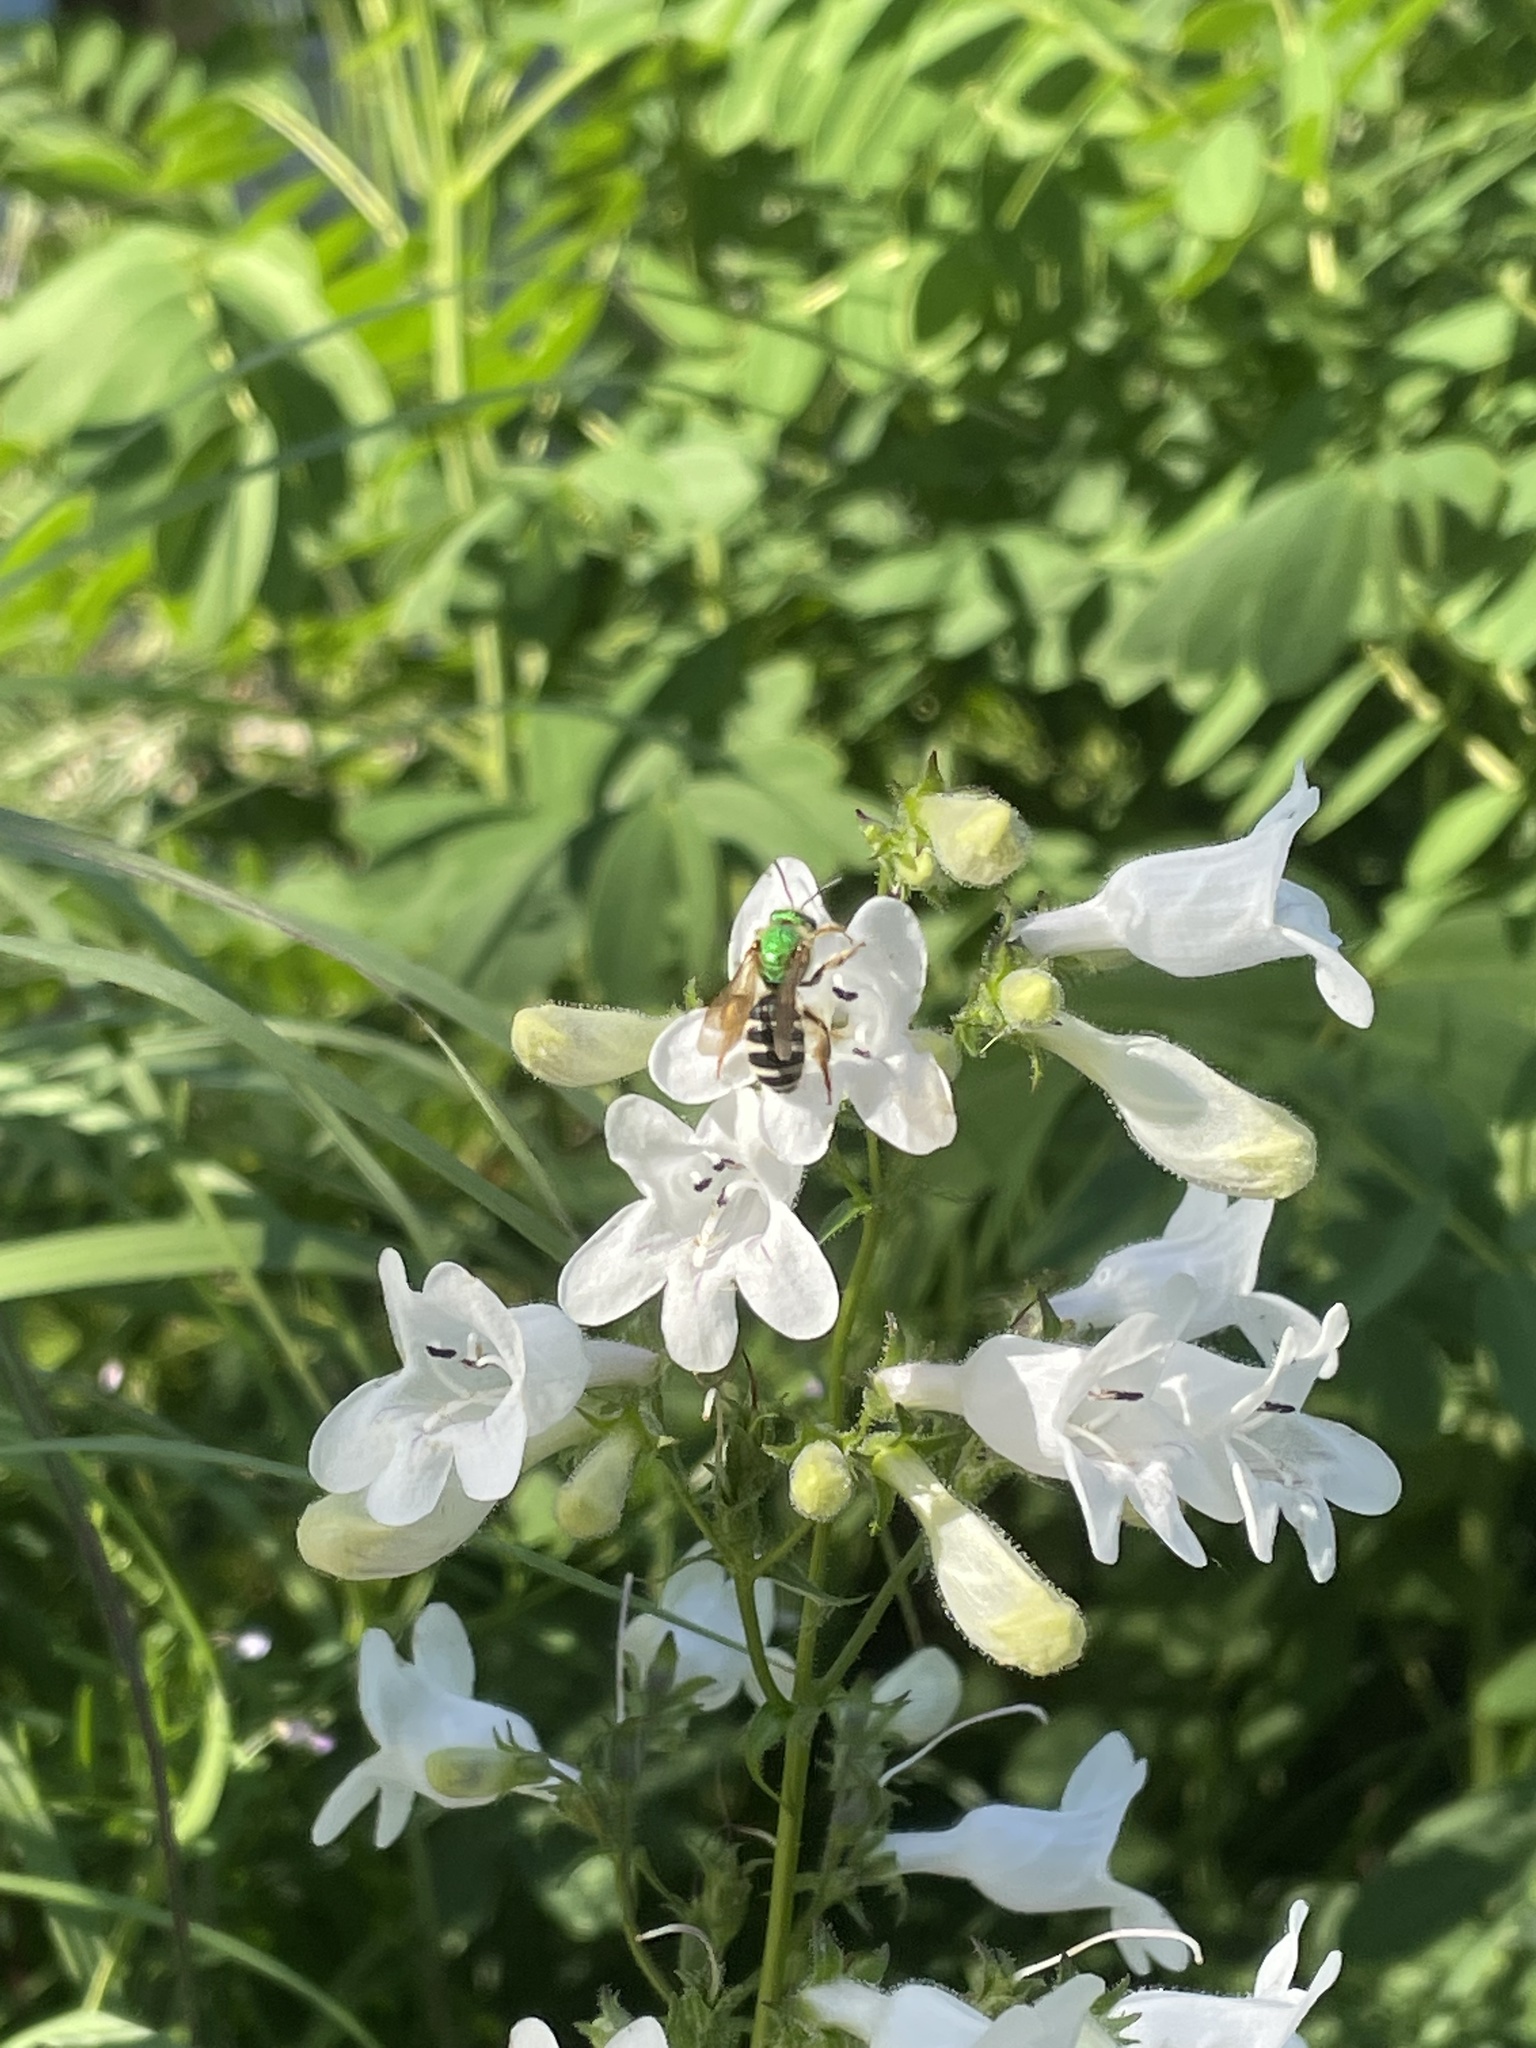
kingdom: Animalia
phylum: Arthropoda
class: Insecta
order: Hymenoptera
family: Halictidae
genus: Agapostemon
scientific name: Agapostemon virescens
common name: Bicolored striped sweat bee
